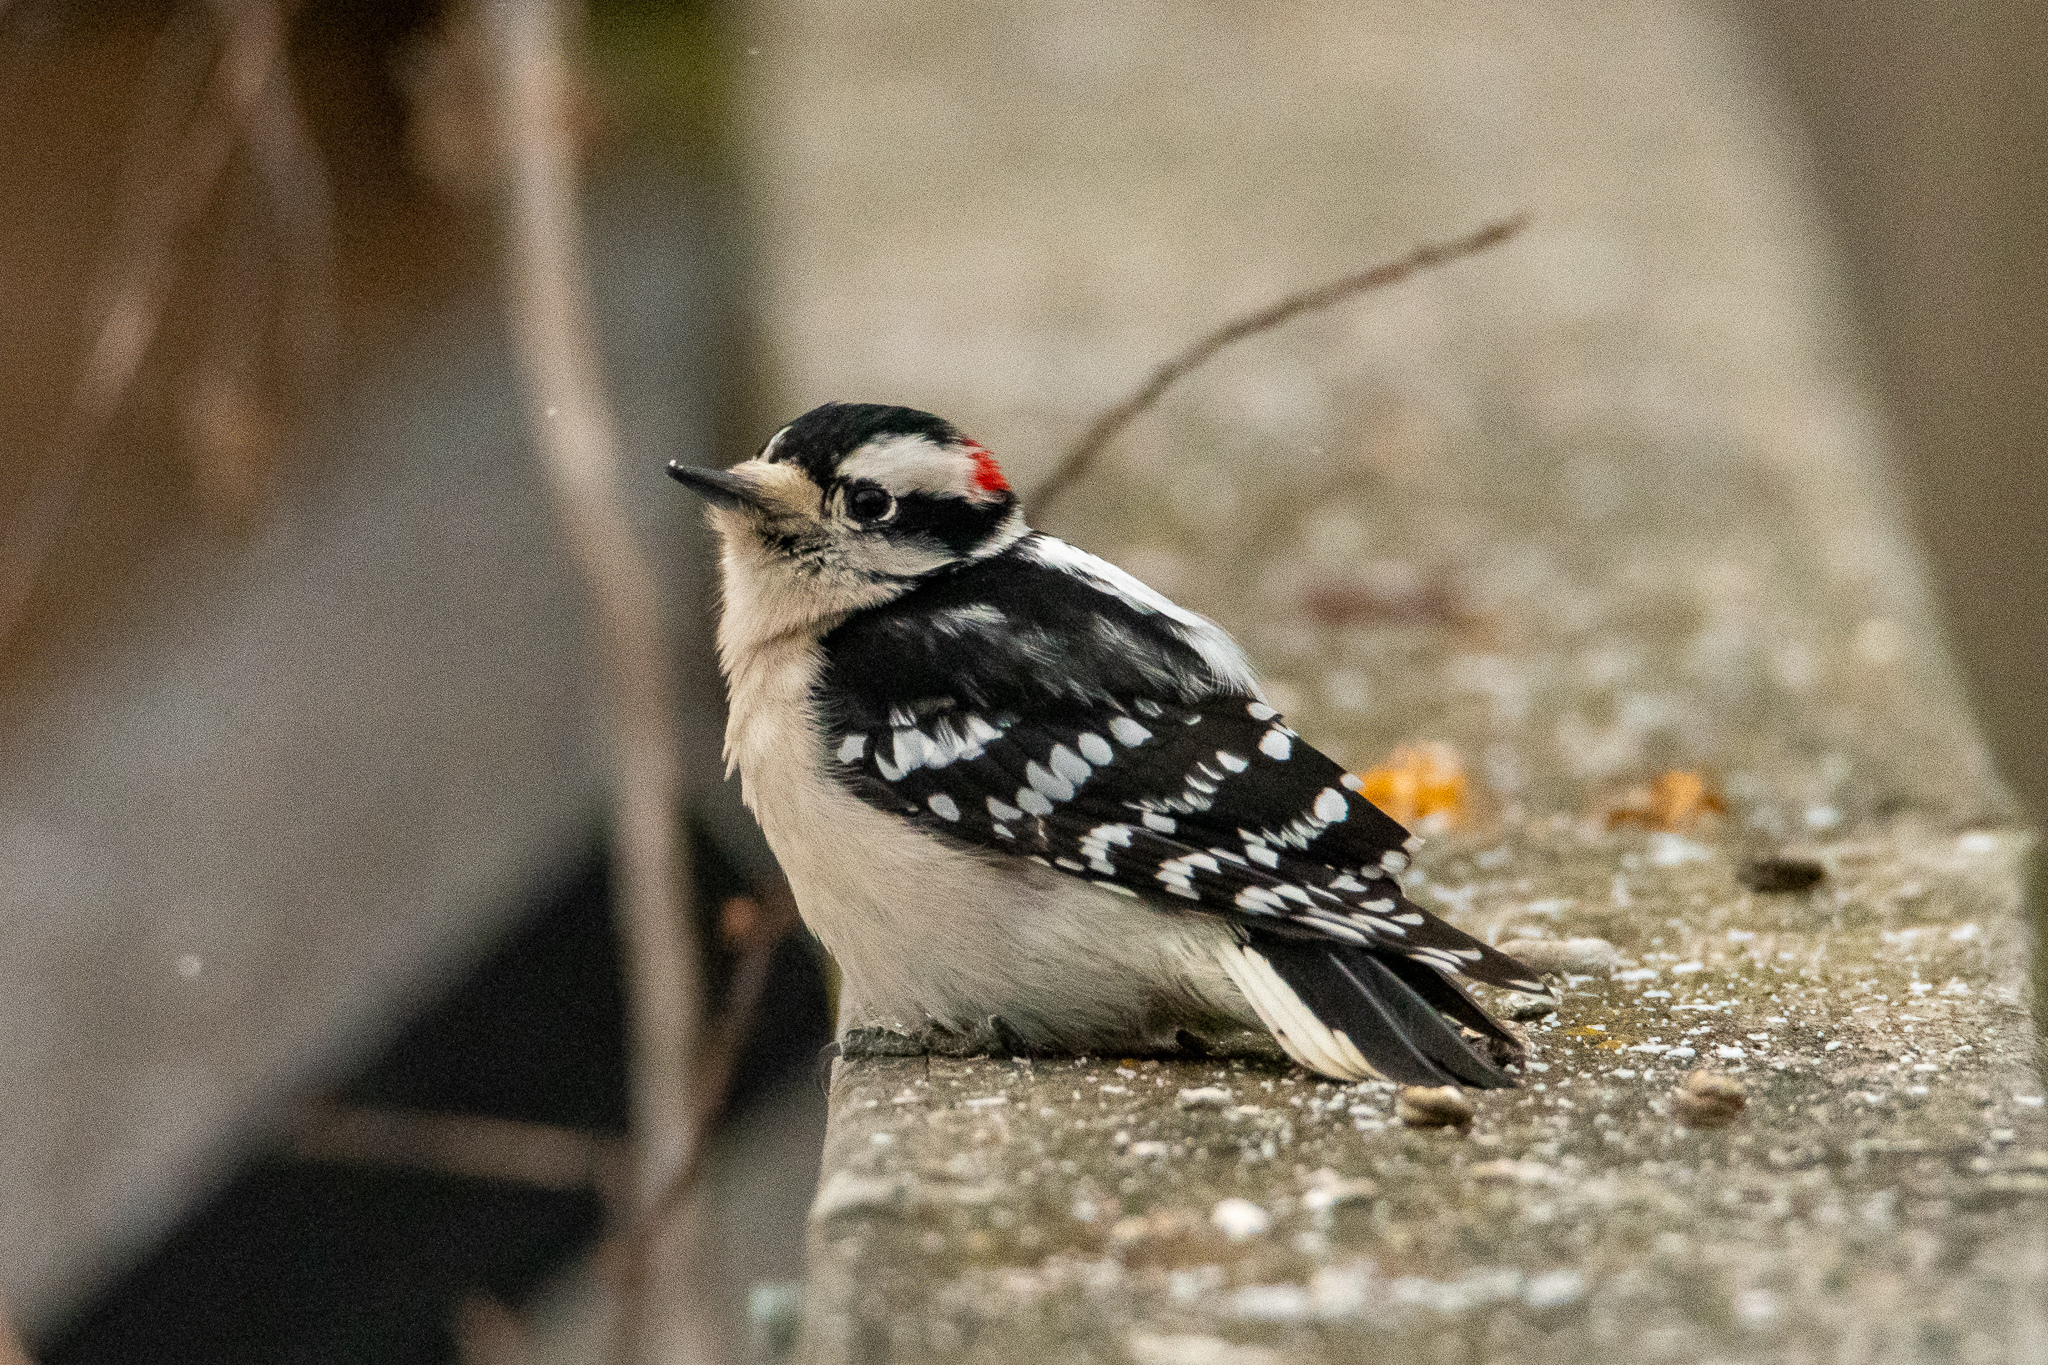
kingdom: Animalia
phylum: Chordata
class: Aves
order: Piciformes
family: Picidae
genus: Dryobates
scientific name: Dryobates pubescens
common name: Downy woodpecker
